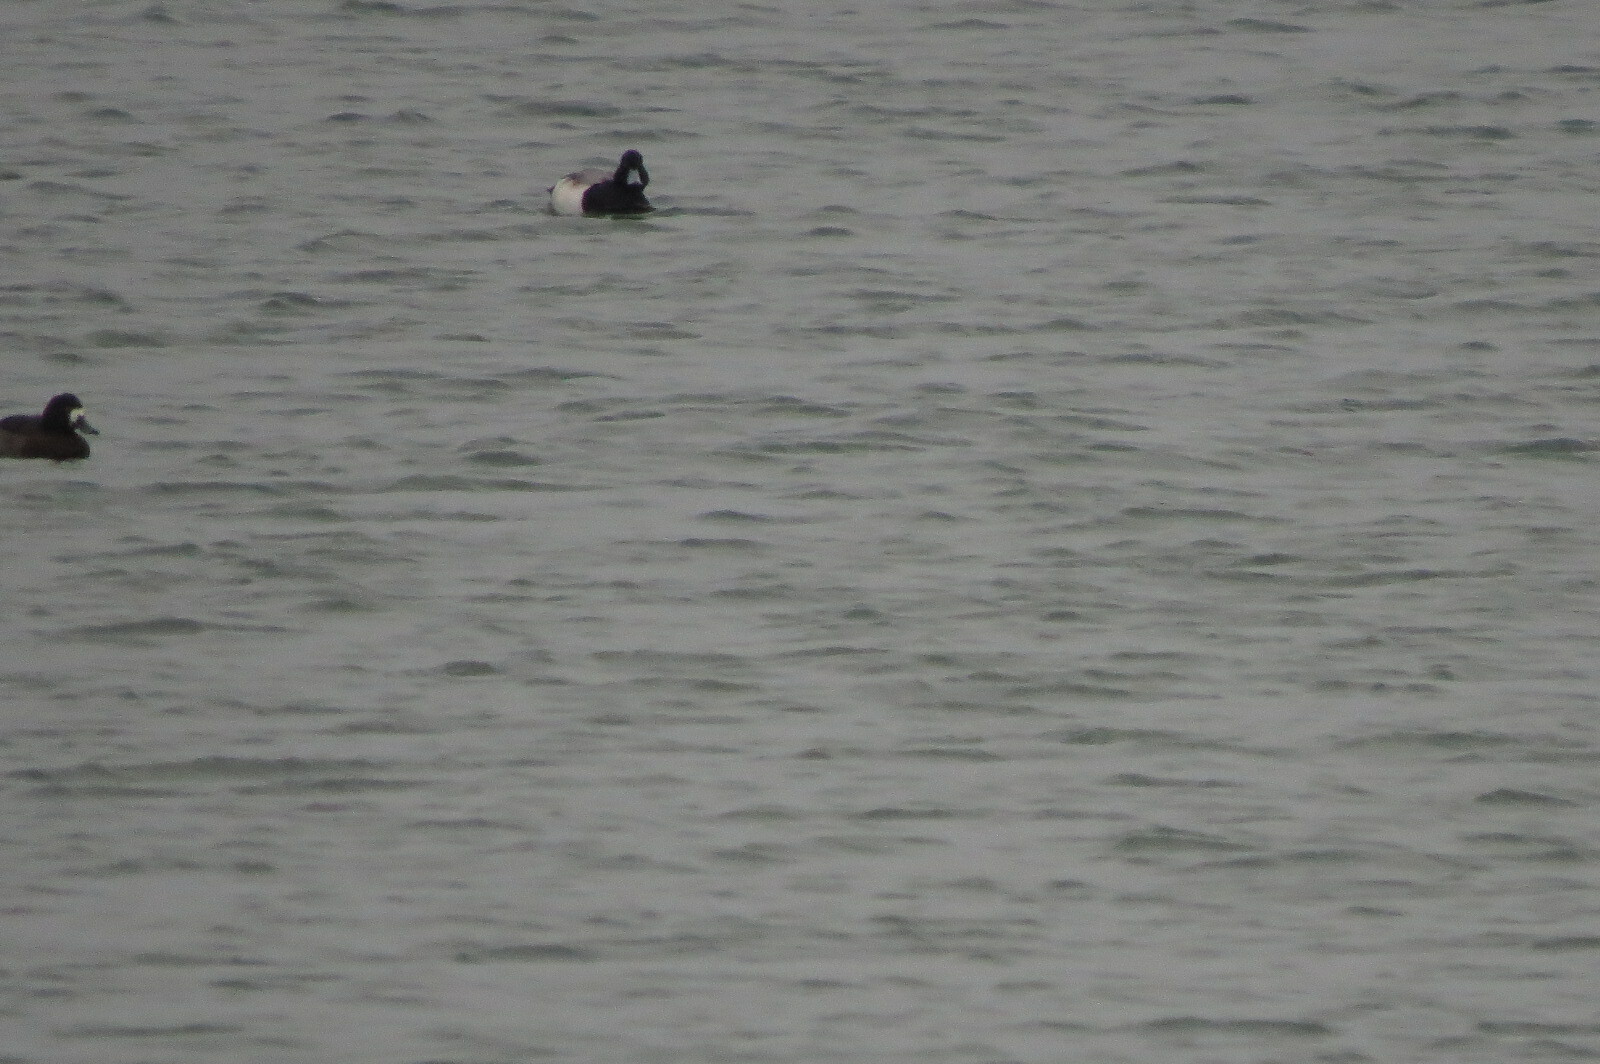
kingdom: Animalia
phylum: Chordata
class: Aves
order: Anseriformes
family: Anatidae
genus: Aythya
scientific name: Aythya marila
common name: Greater scaup
